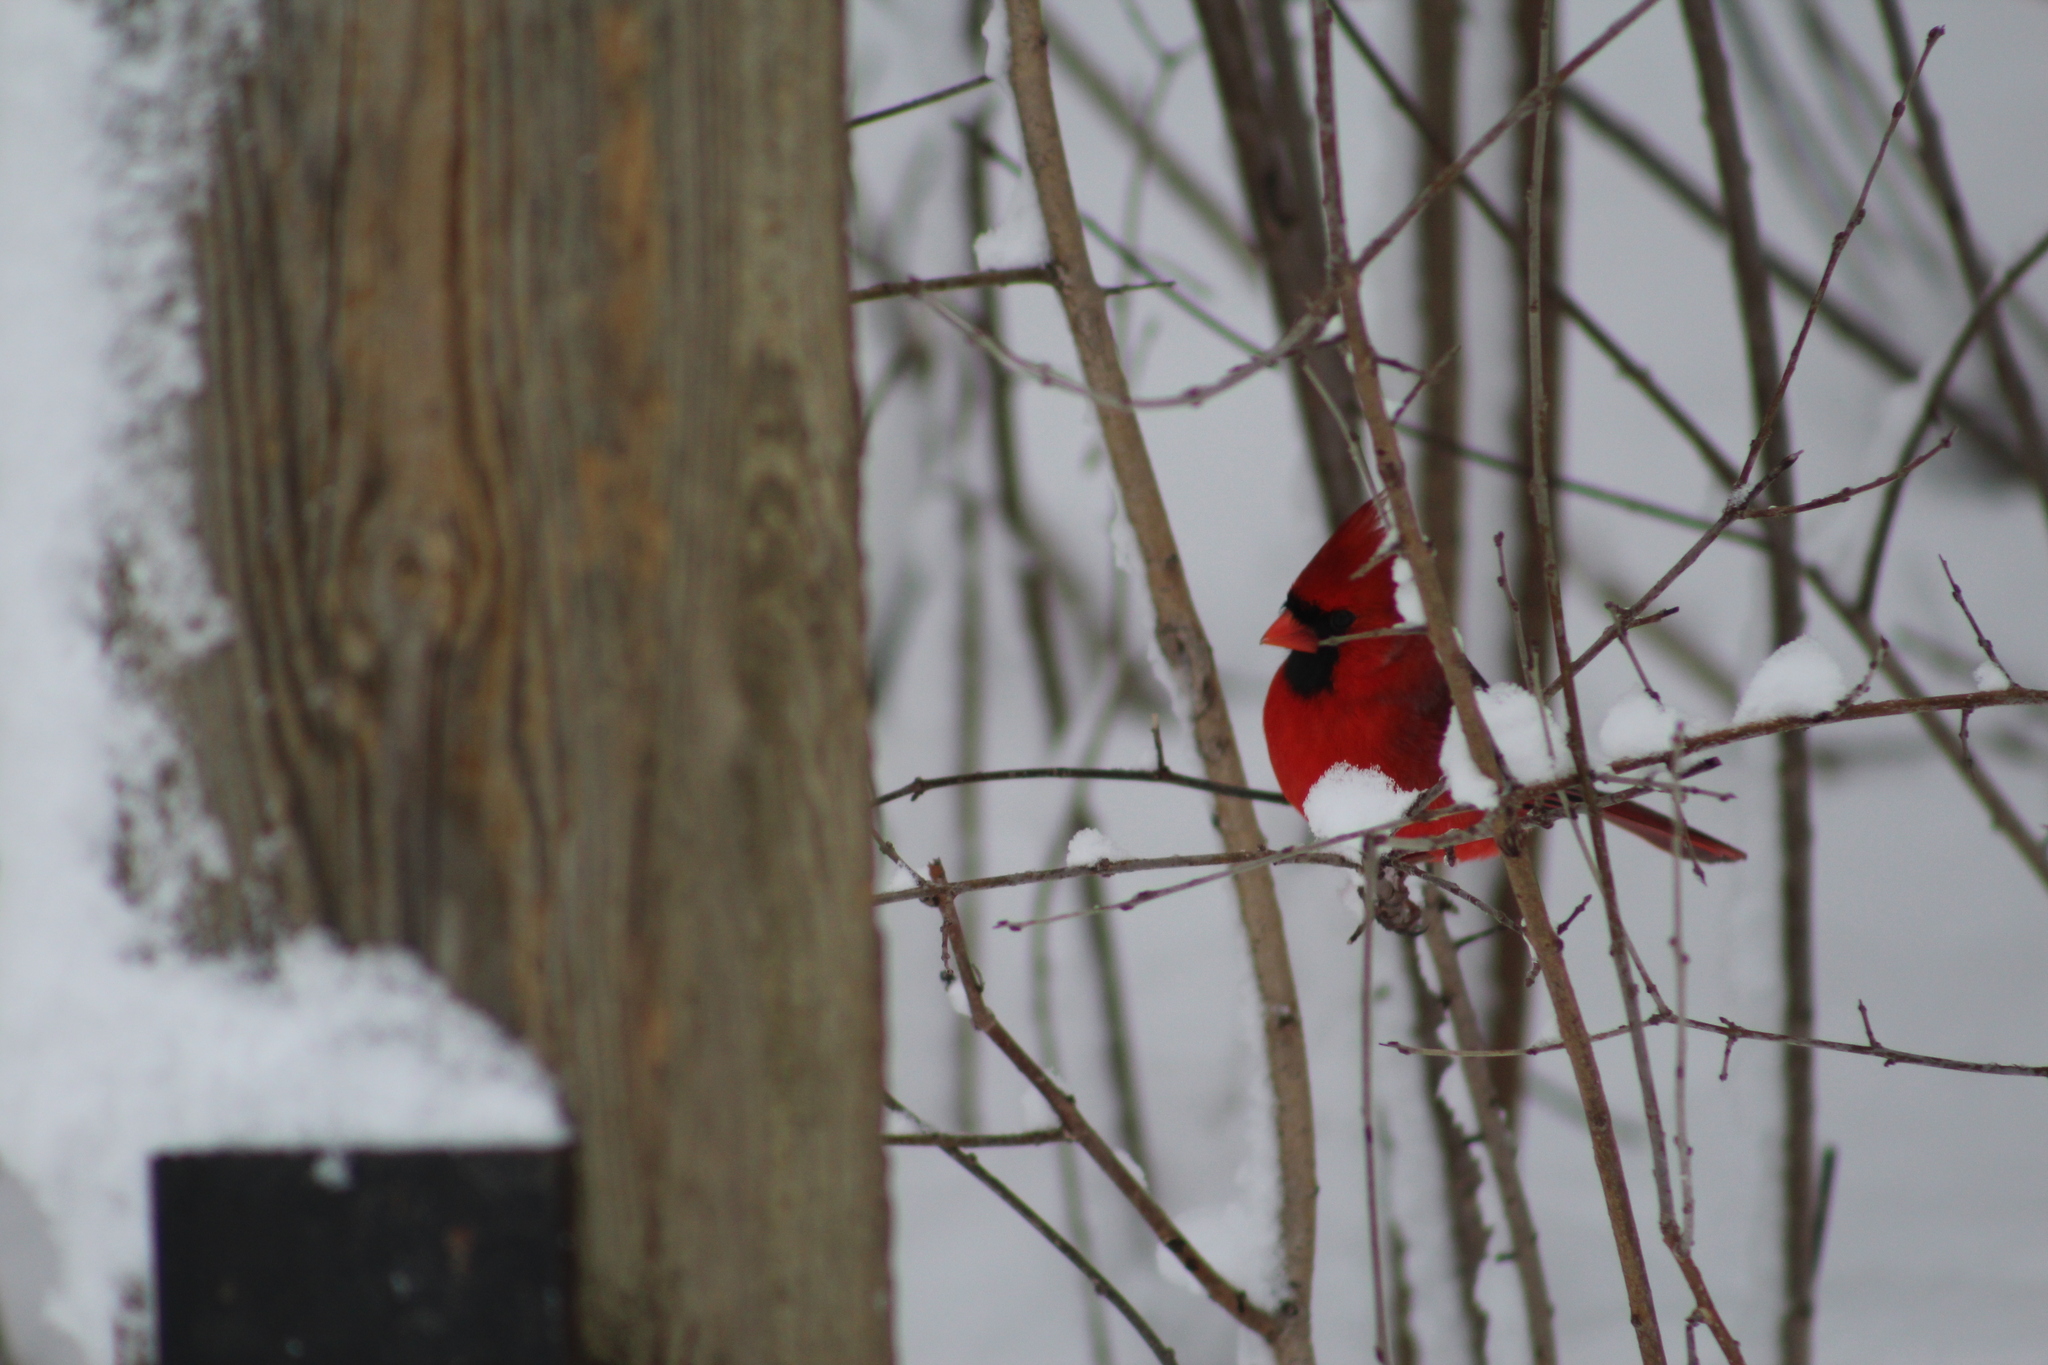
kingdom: Animalia
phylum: Chordata
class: Aves
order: Passeriformes
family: Cardinalidae
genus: Cardinalis
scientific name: Cardinalis cardinalis
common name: Northern cardinal
